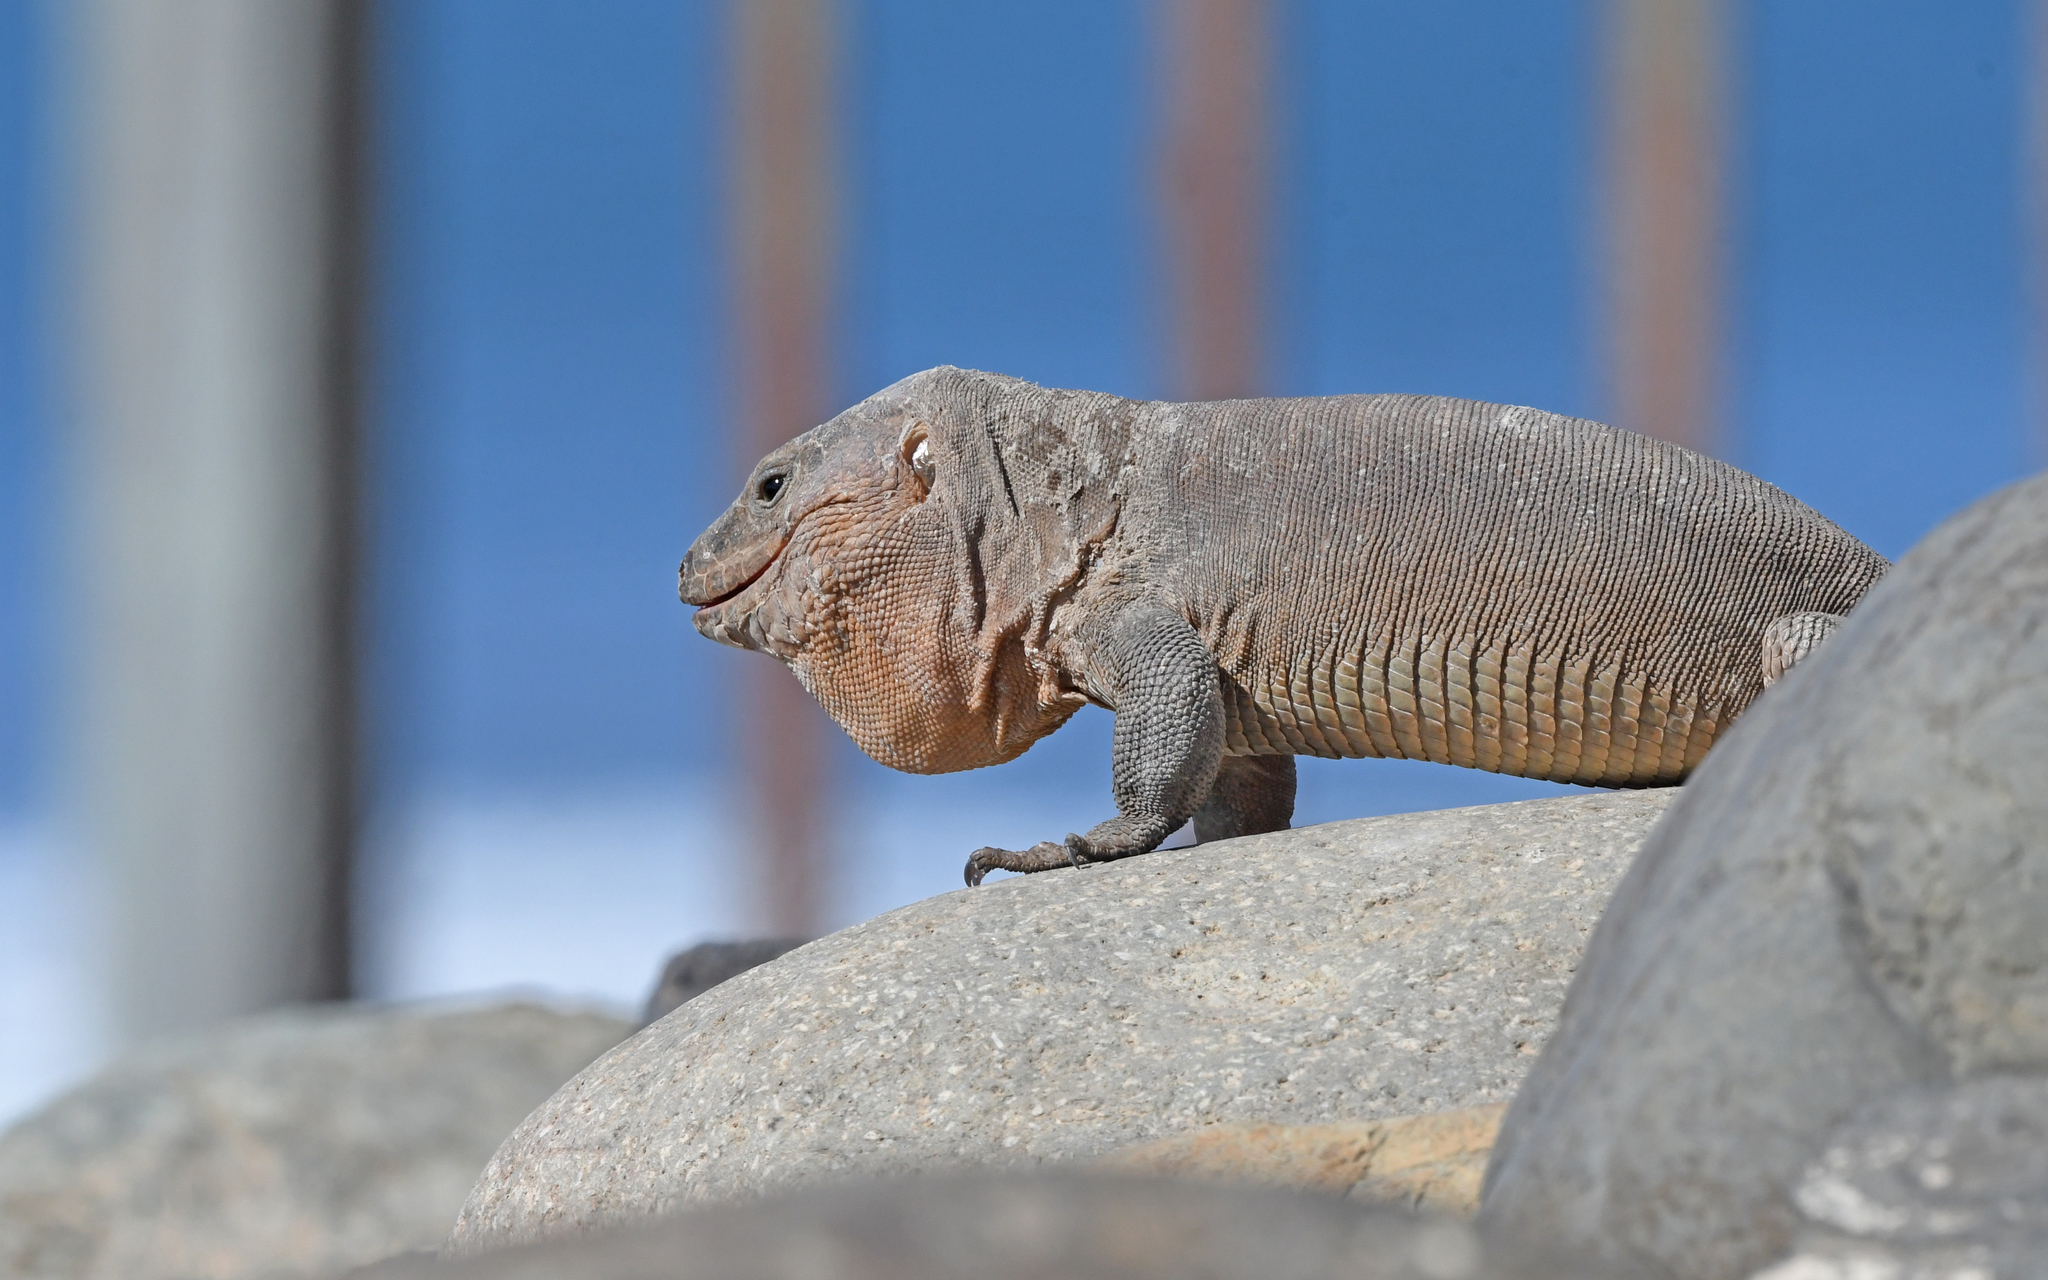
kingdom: Animalia
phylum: Chordata
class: Squamata
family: Lacertidae
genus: Gallotia
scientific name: Gallotia stehlini
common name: Gran canaria giant lizard
